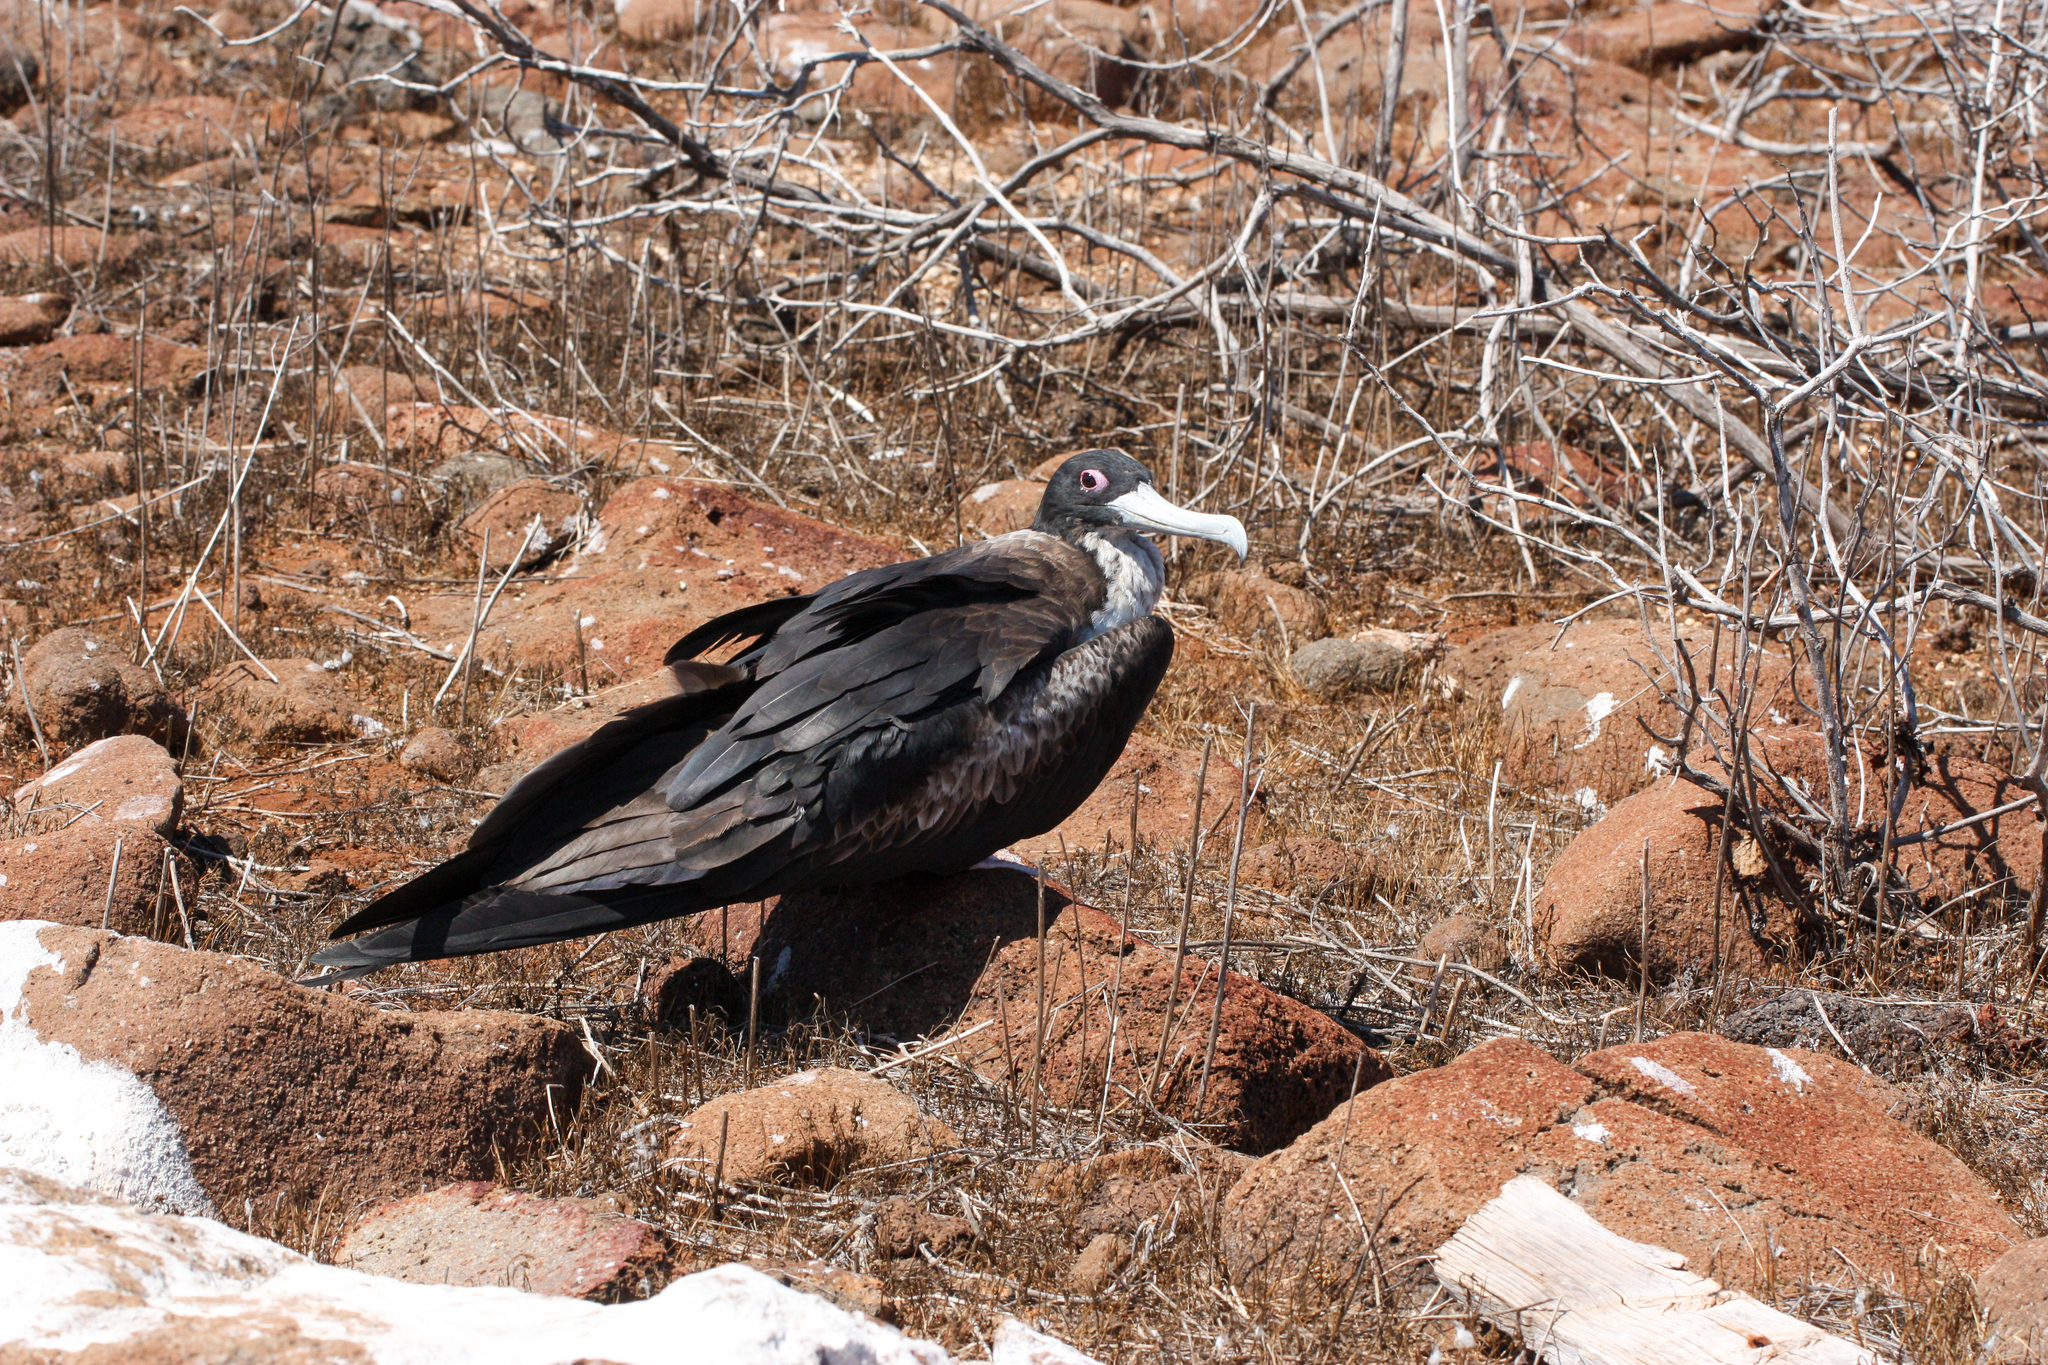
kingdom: Animalia
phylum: Chordata
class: Aves
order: Suliformes
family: Fregatidae
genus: Fregata
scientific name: Fregata minor
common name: Great frigatebird
